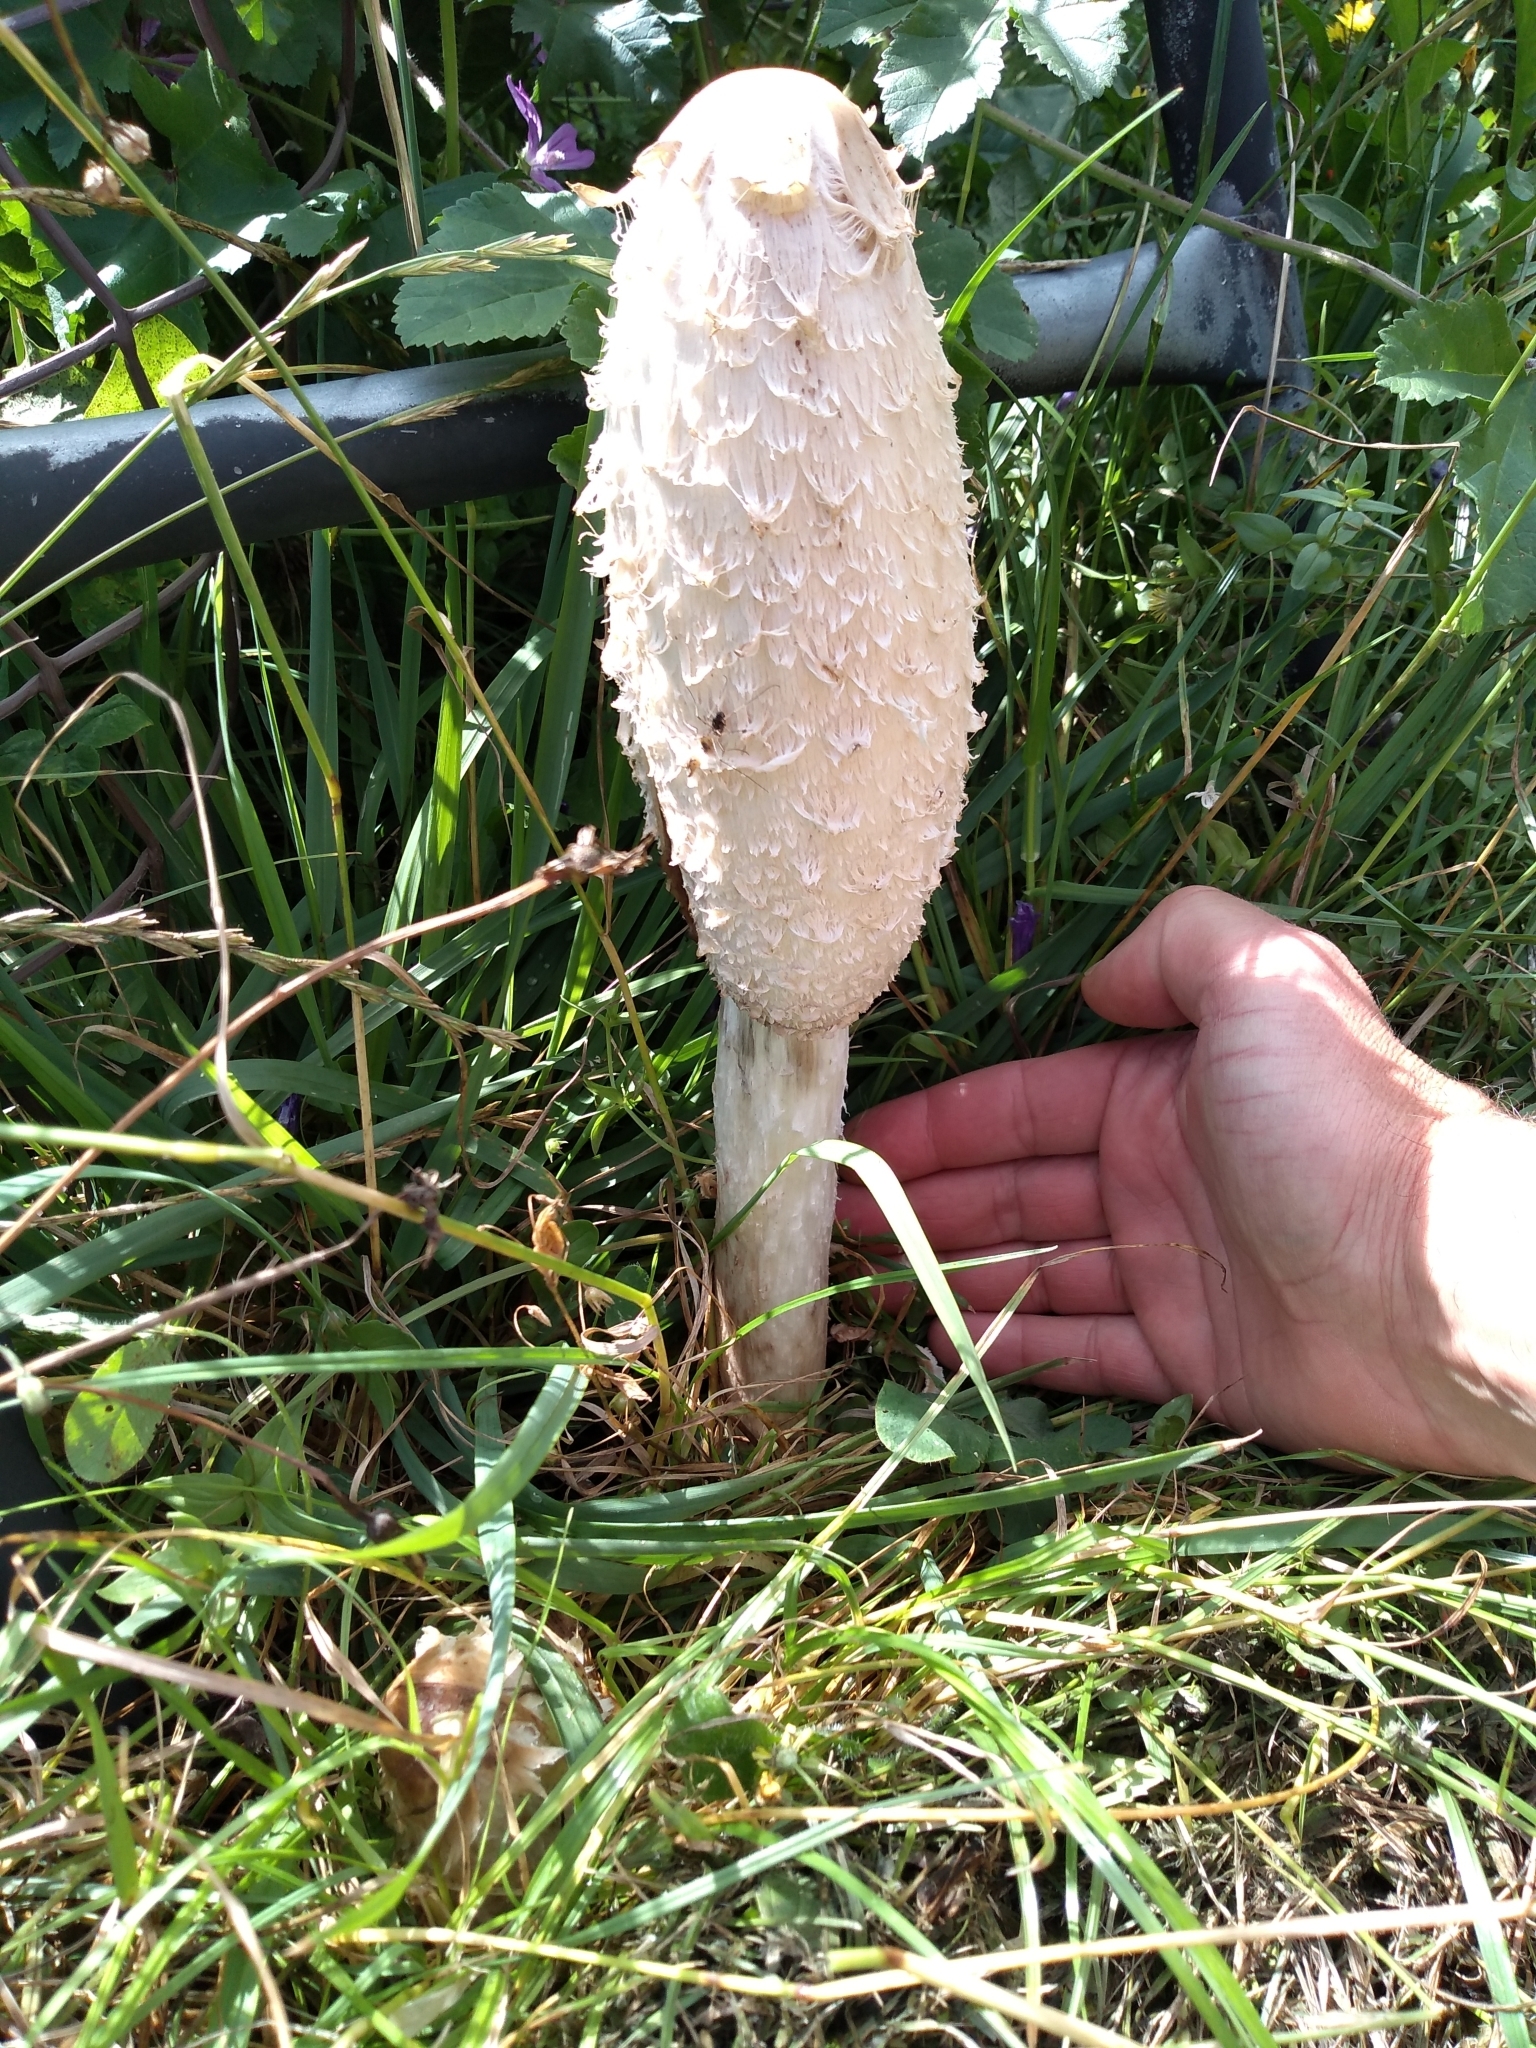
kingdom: Fungi
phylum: Basidiomycota
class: Agaricomycetes
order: Agaricales
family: Agaricaceae
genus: Coprinus
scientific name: Coprinus comatus
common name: Lawyer's wig
